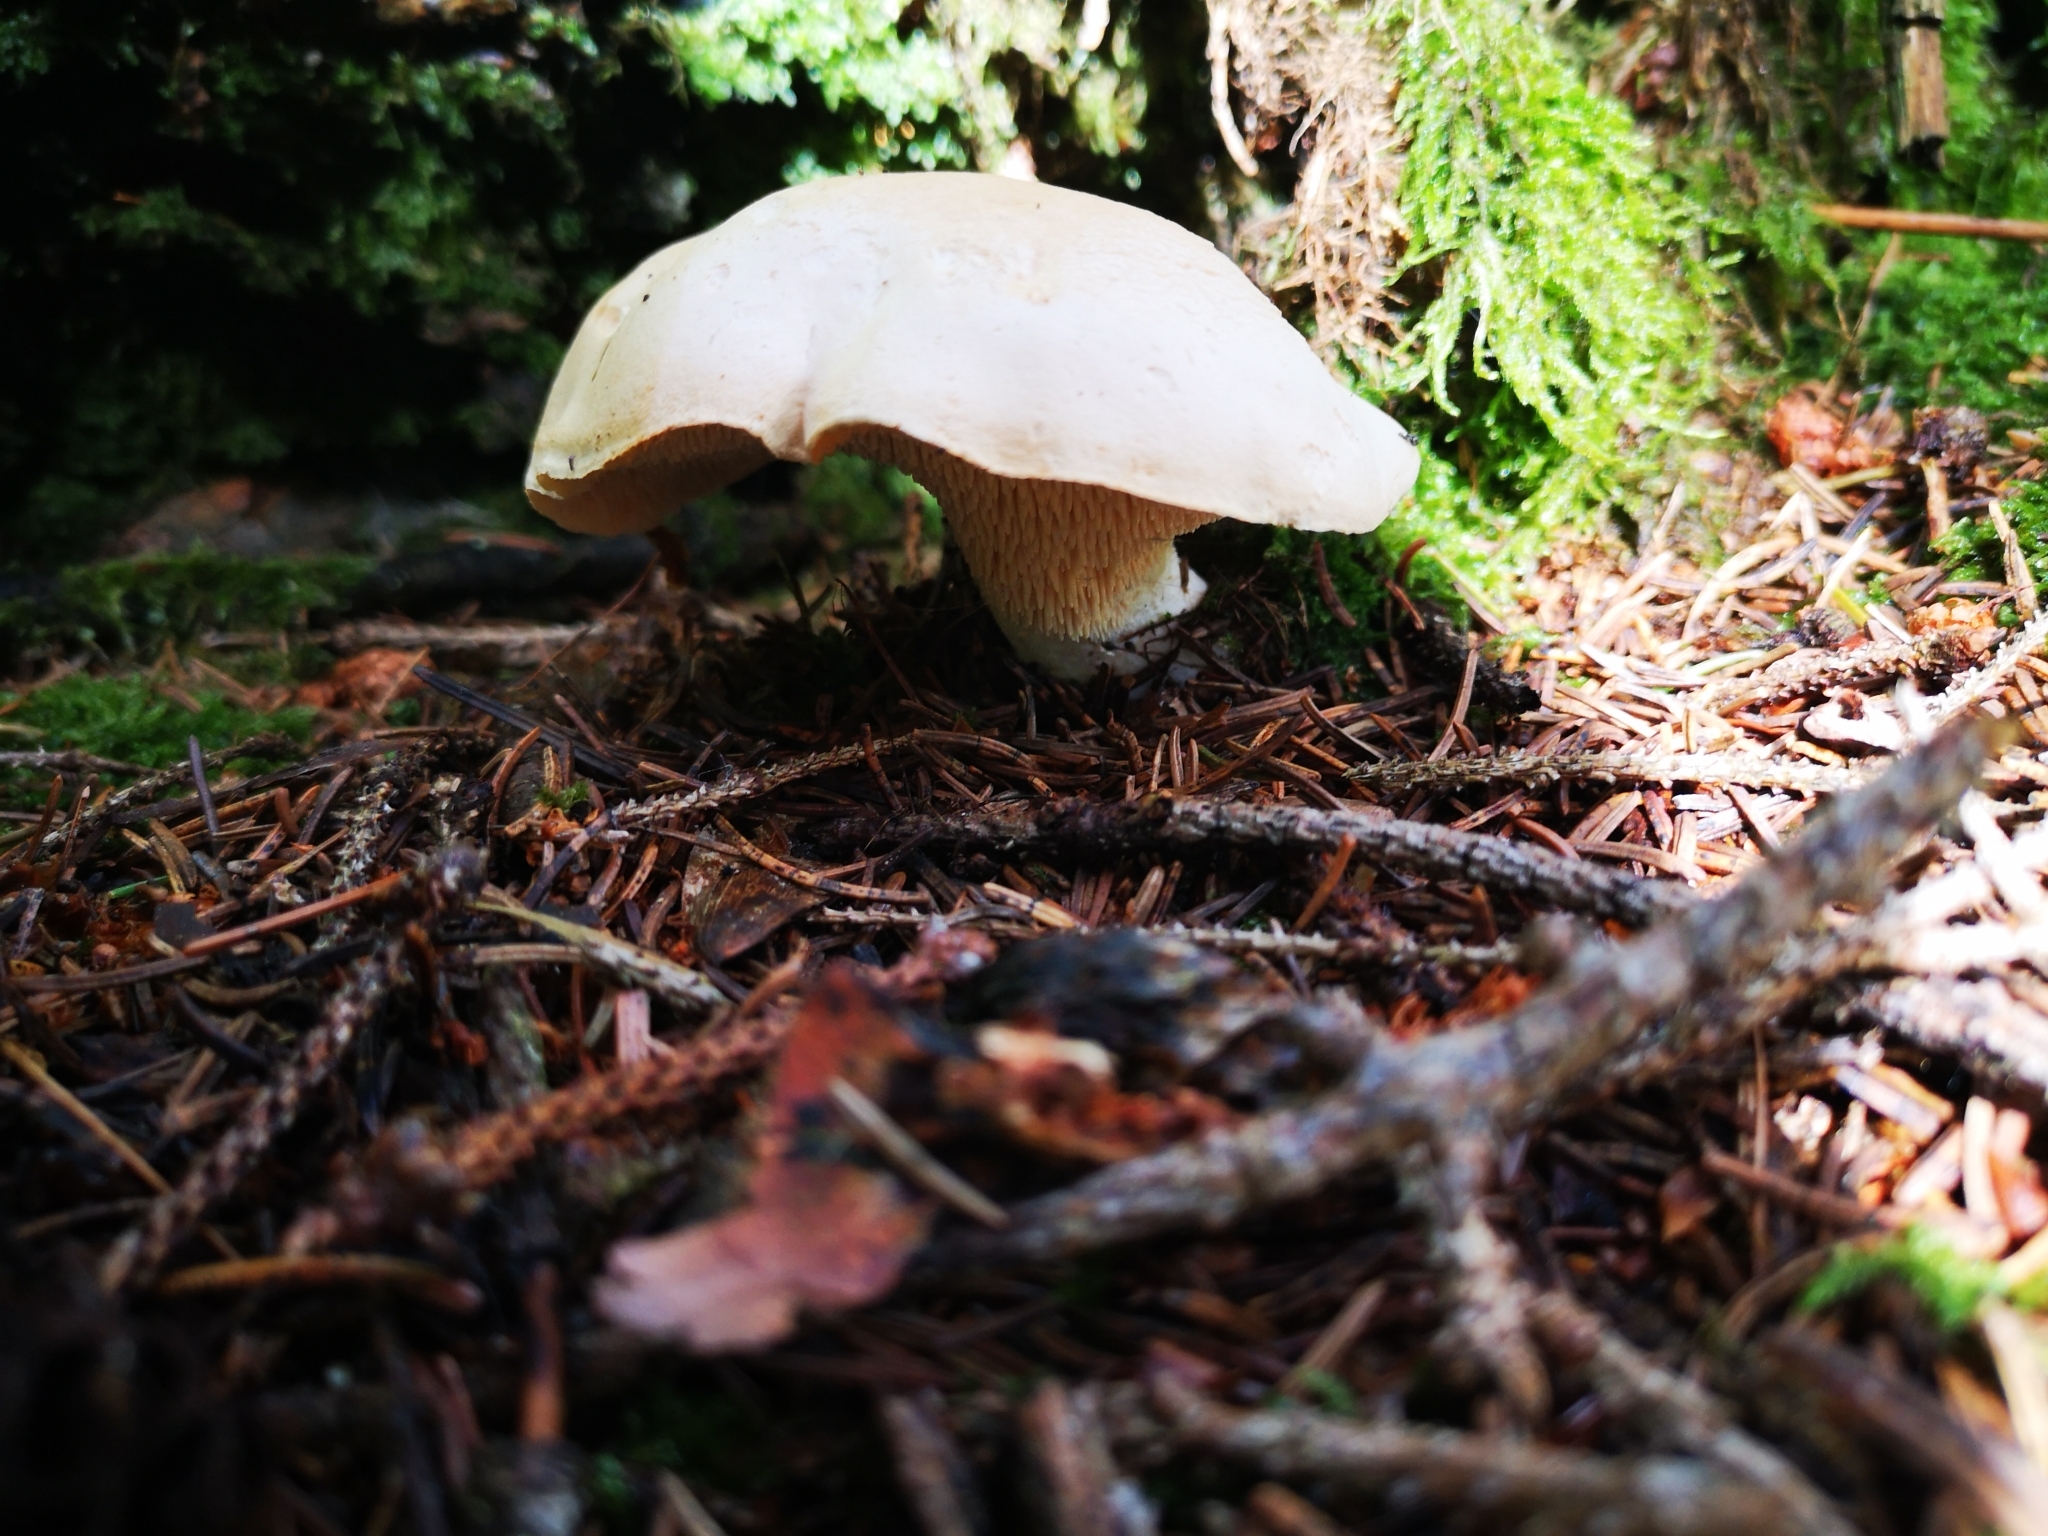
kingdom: Fungi
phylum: Basidiomycota
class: Agaricomycetes
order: Cantharellales
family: Hydnaceae
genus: Hydnum
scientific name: Hydnum repandum
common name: Wood hedgehog
